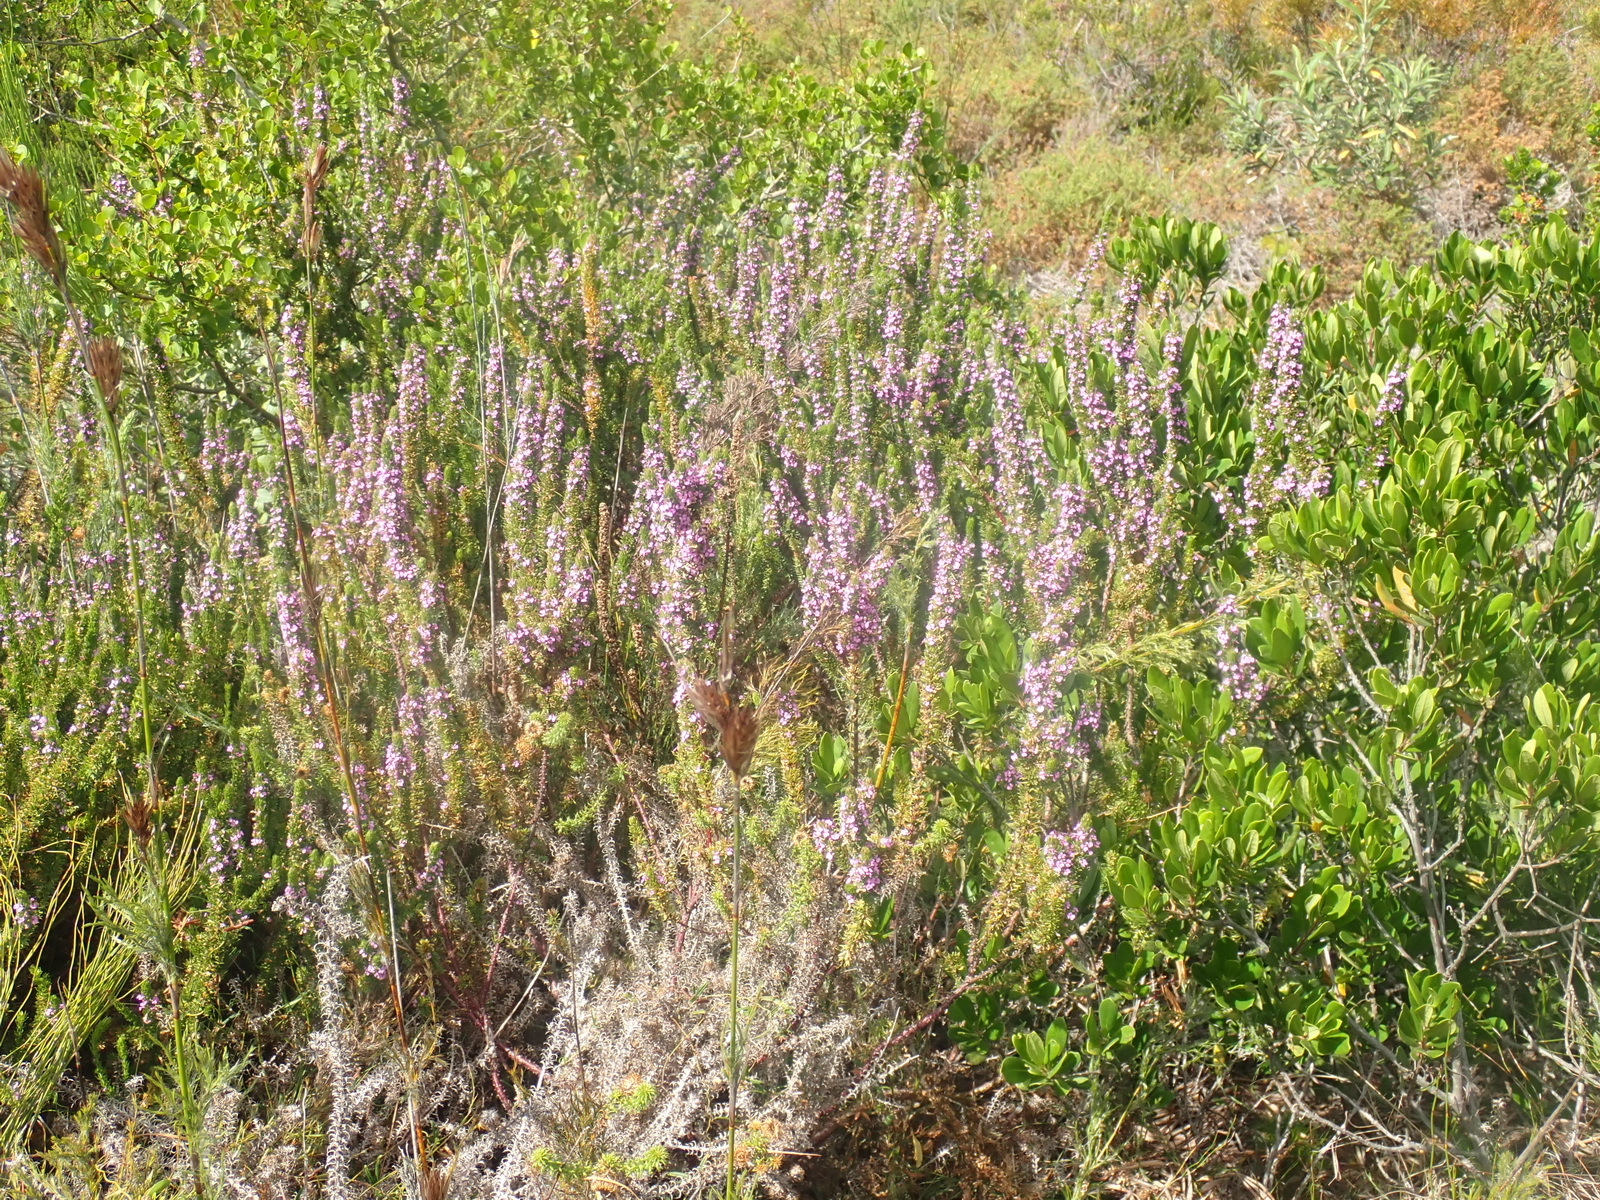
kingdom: Plantae
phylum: Tracheophyta
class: Magnoliopsida
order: Fabales
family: Polygalaceae
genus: Muraltia
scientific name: Muraltia alopecuroides
